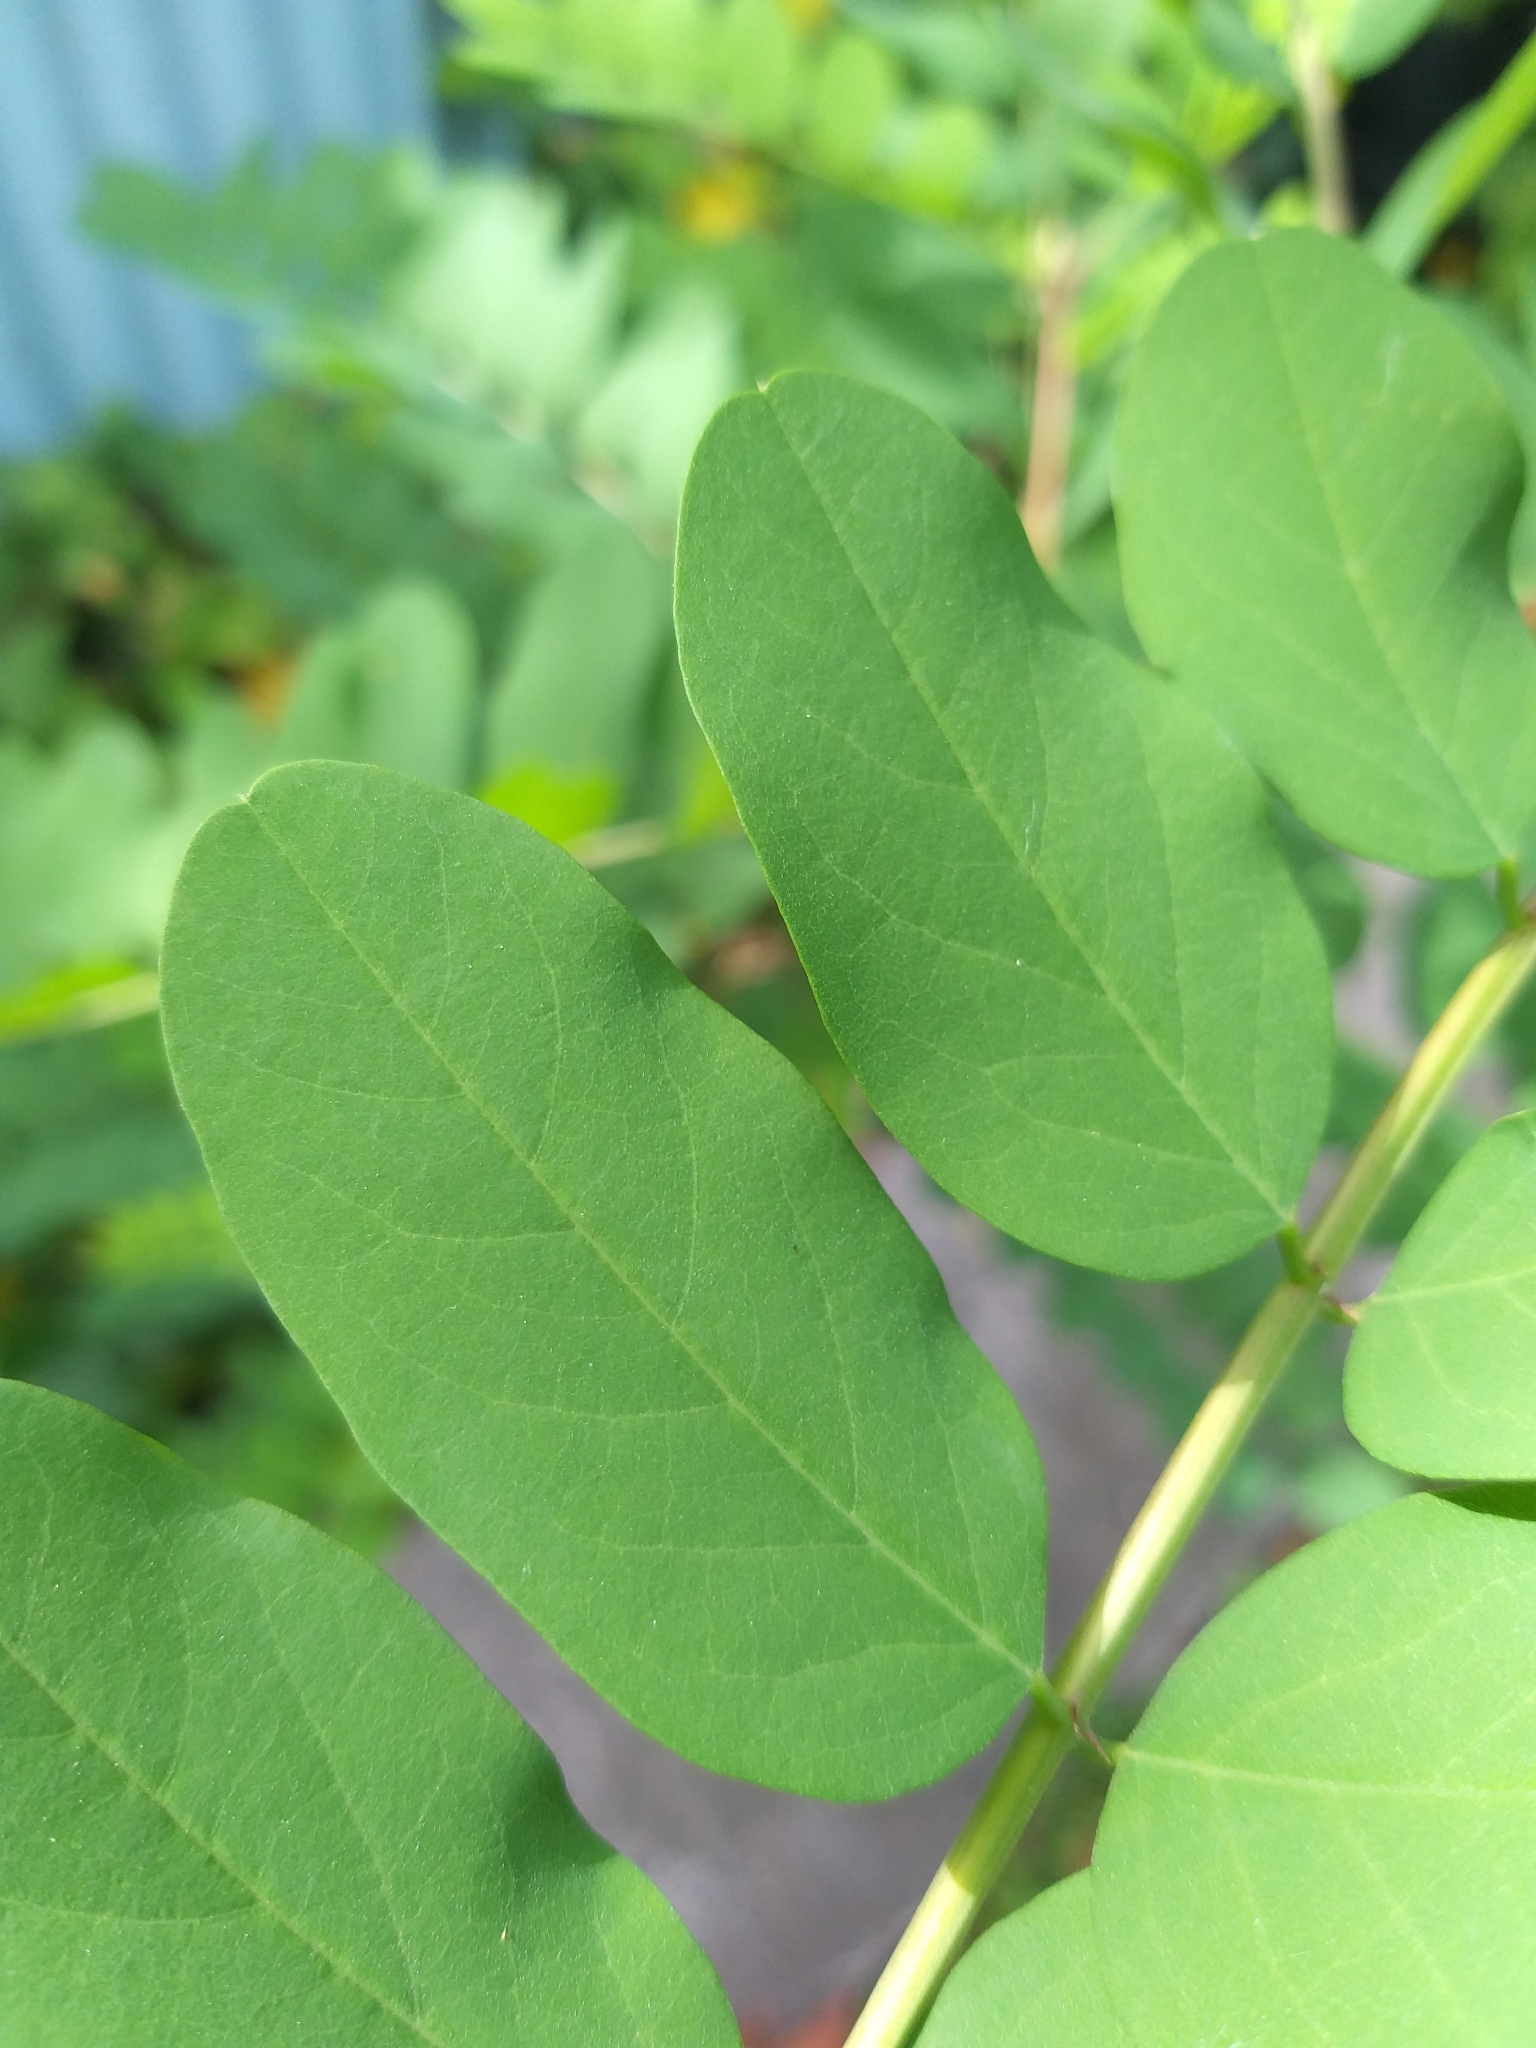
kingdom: Plantae
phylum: Tracheophyta
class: Magnoliopsida
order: Fabales
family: Fabaceae
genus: Robinia
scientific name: Robinia pseudoacacia
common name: Black locust
